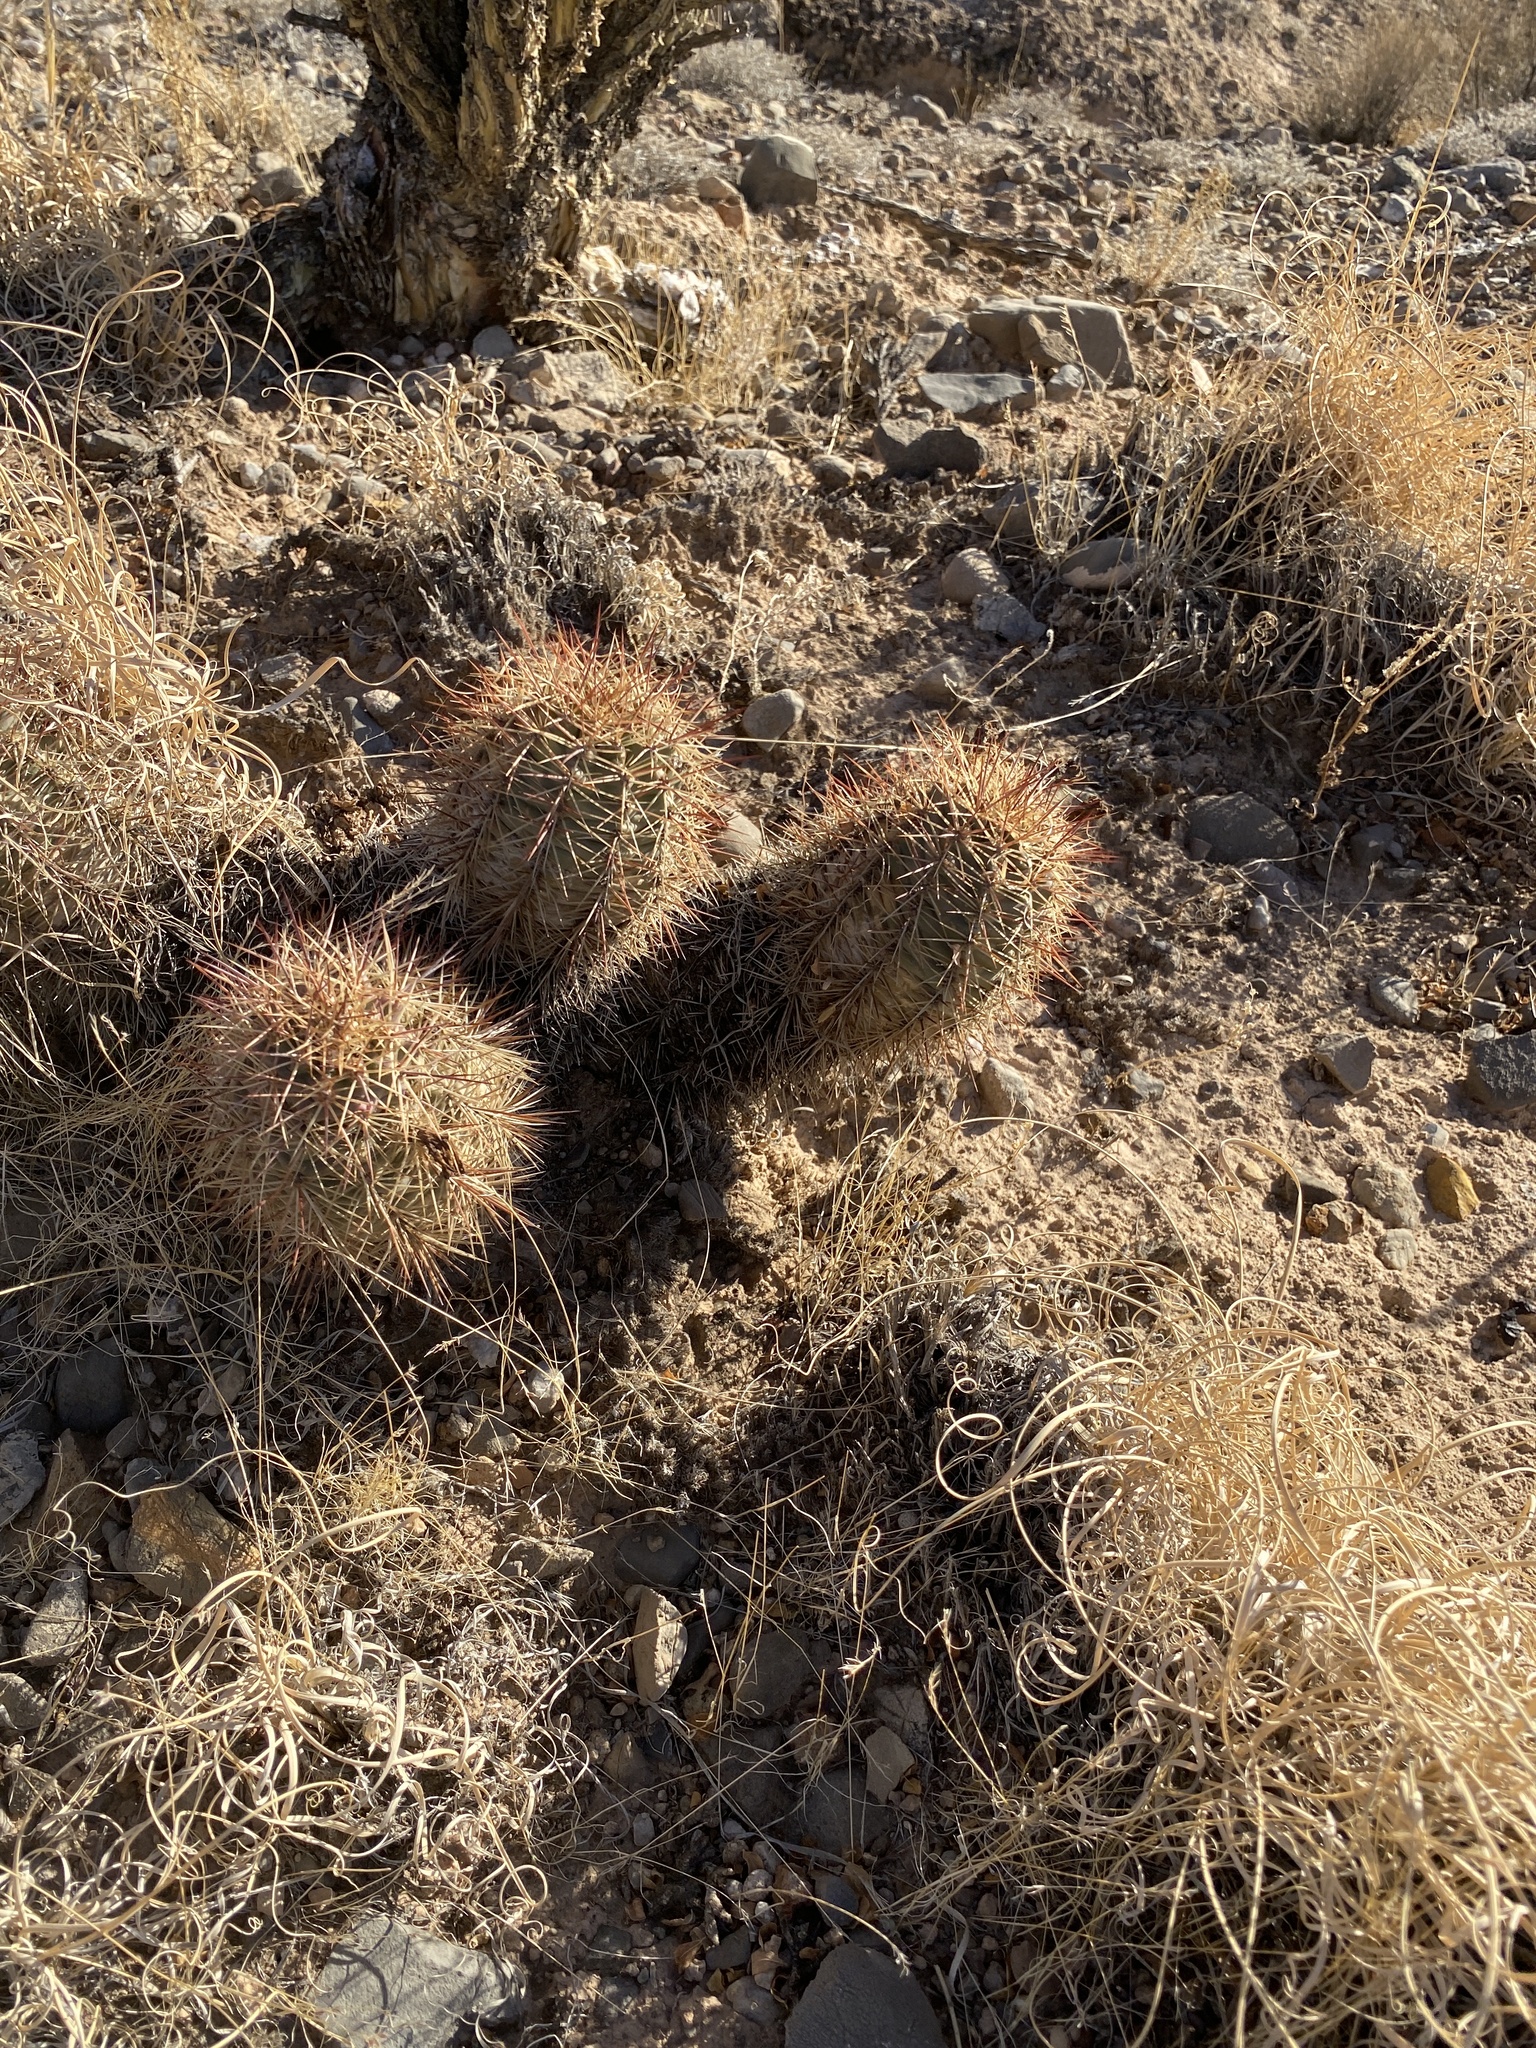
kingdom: Plantae
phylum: Tracheophyta
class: Magnoliopsida
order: Caryophyllales
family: Cactaceae
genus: Echinocereus
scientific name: Echinocereus coccineus
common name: Scarlet hedgehog cactus
